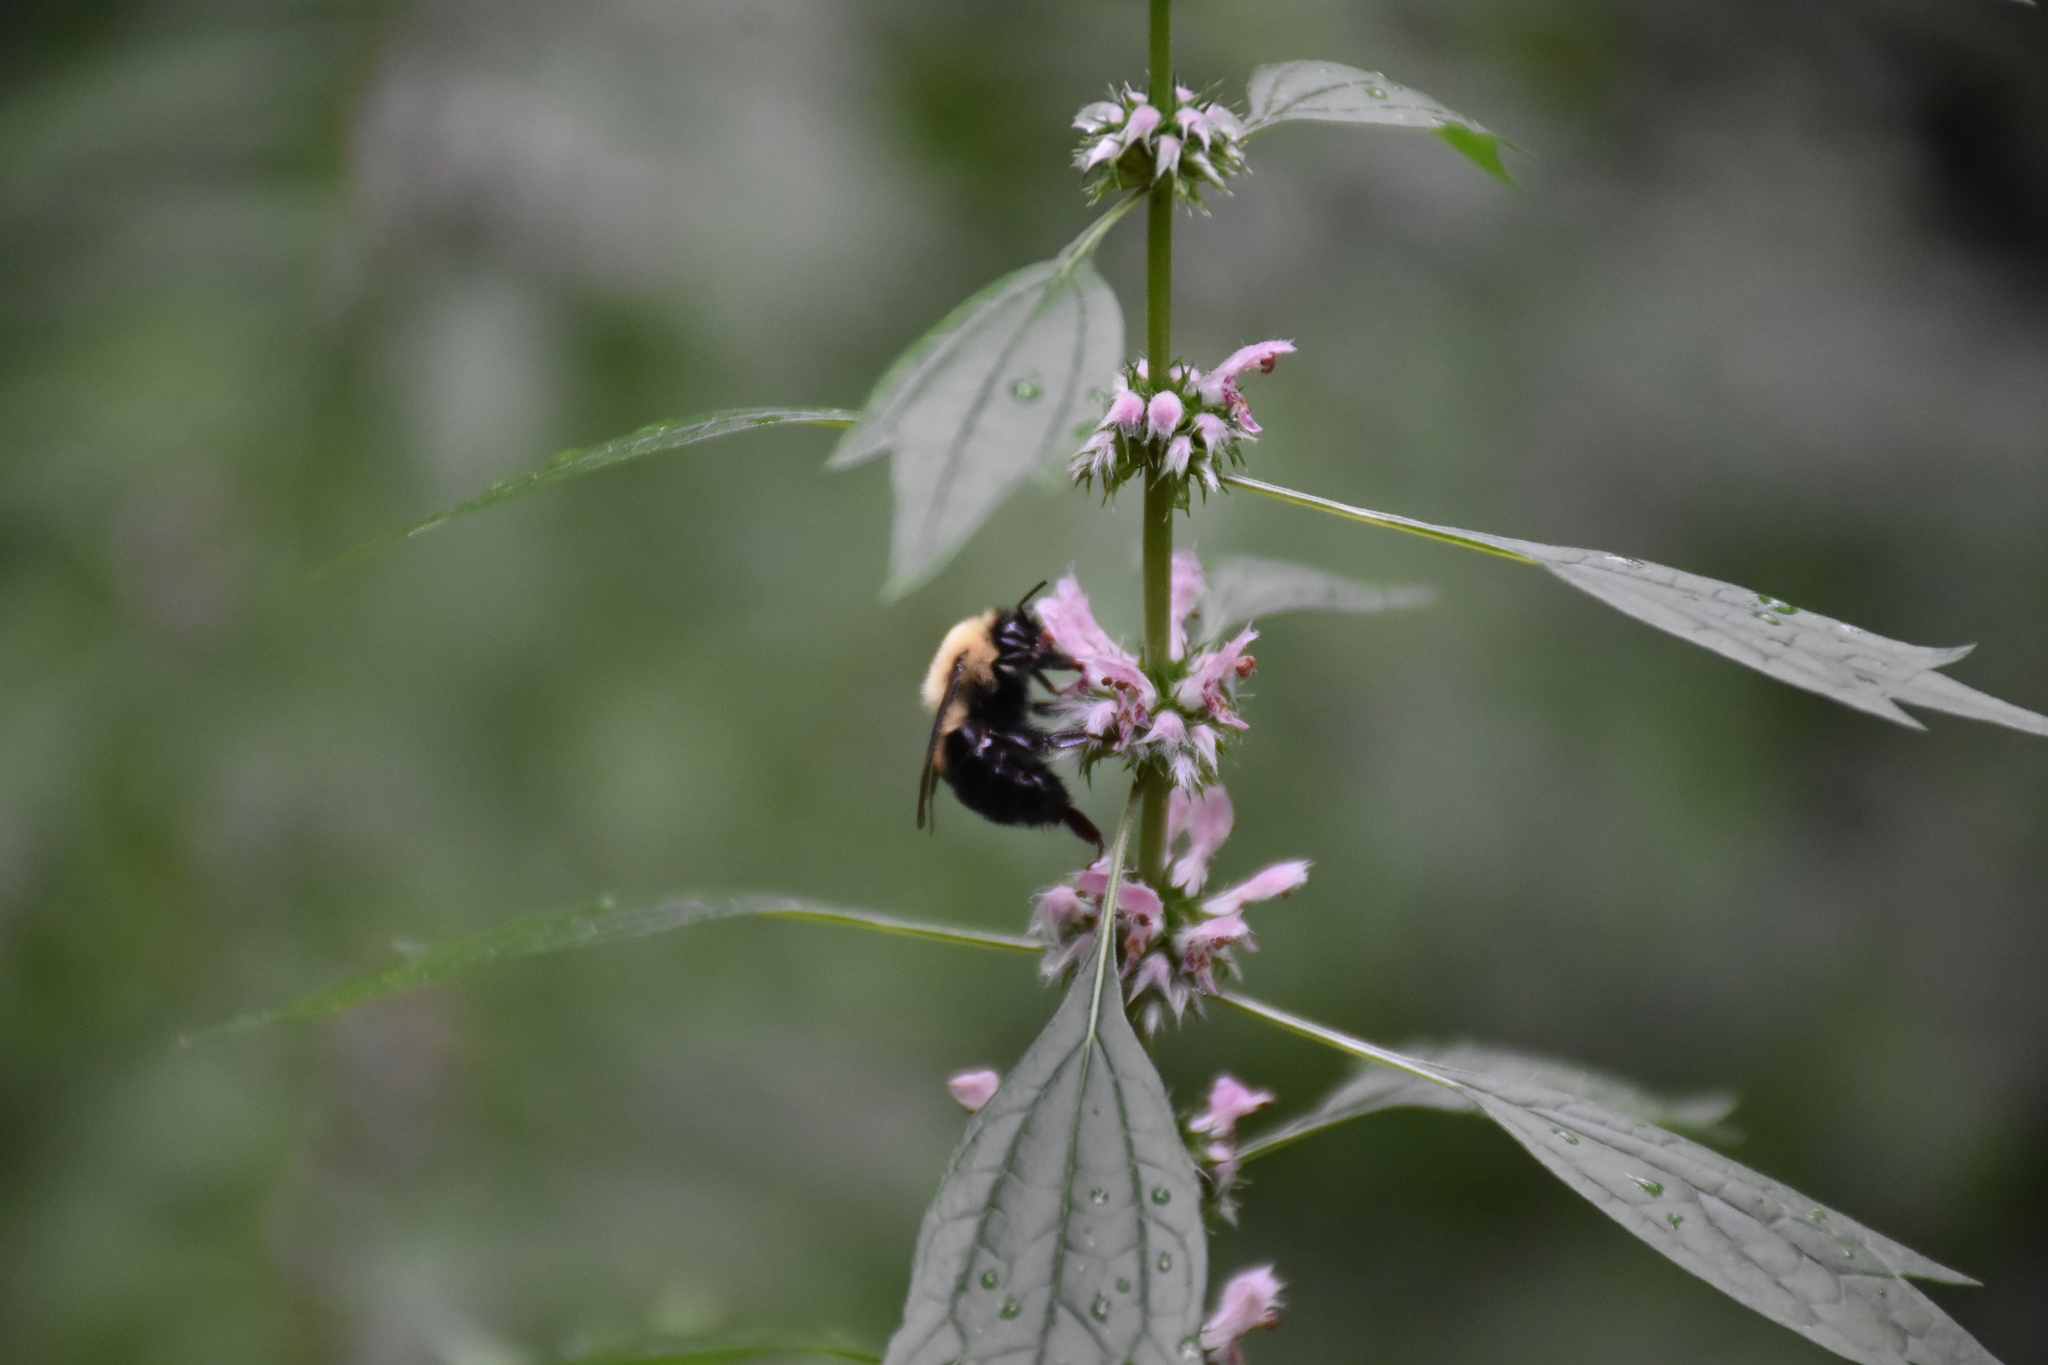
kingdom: Animalia
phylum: Arthropoda
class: Insecta
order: Hymenoptera
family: Apidae
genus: Bombus
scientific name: Bombus bimaculatus
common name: Two-spotted bumble bee
